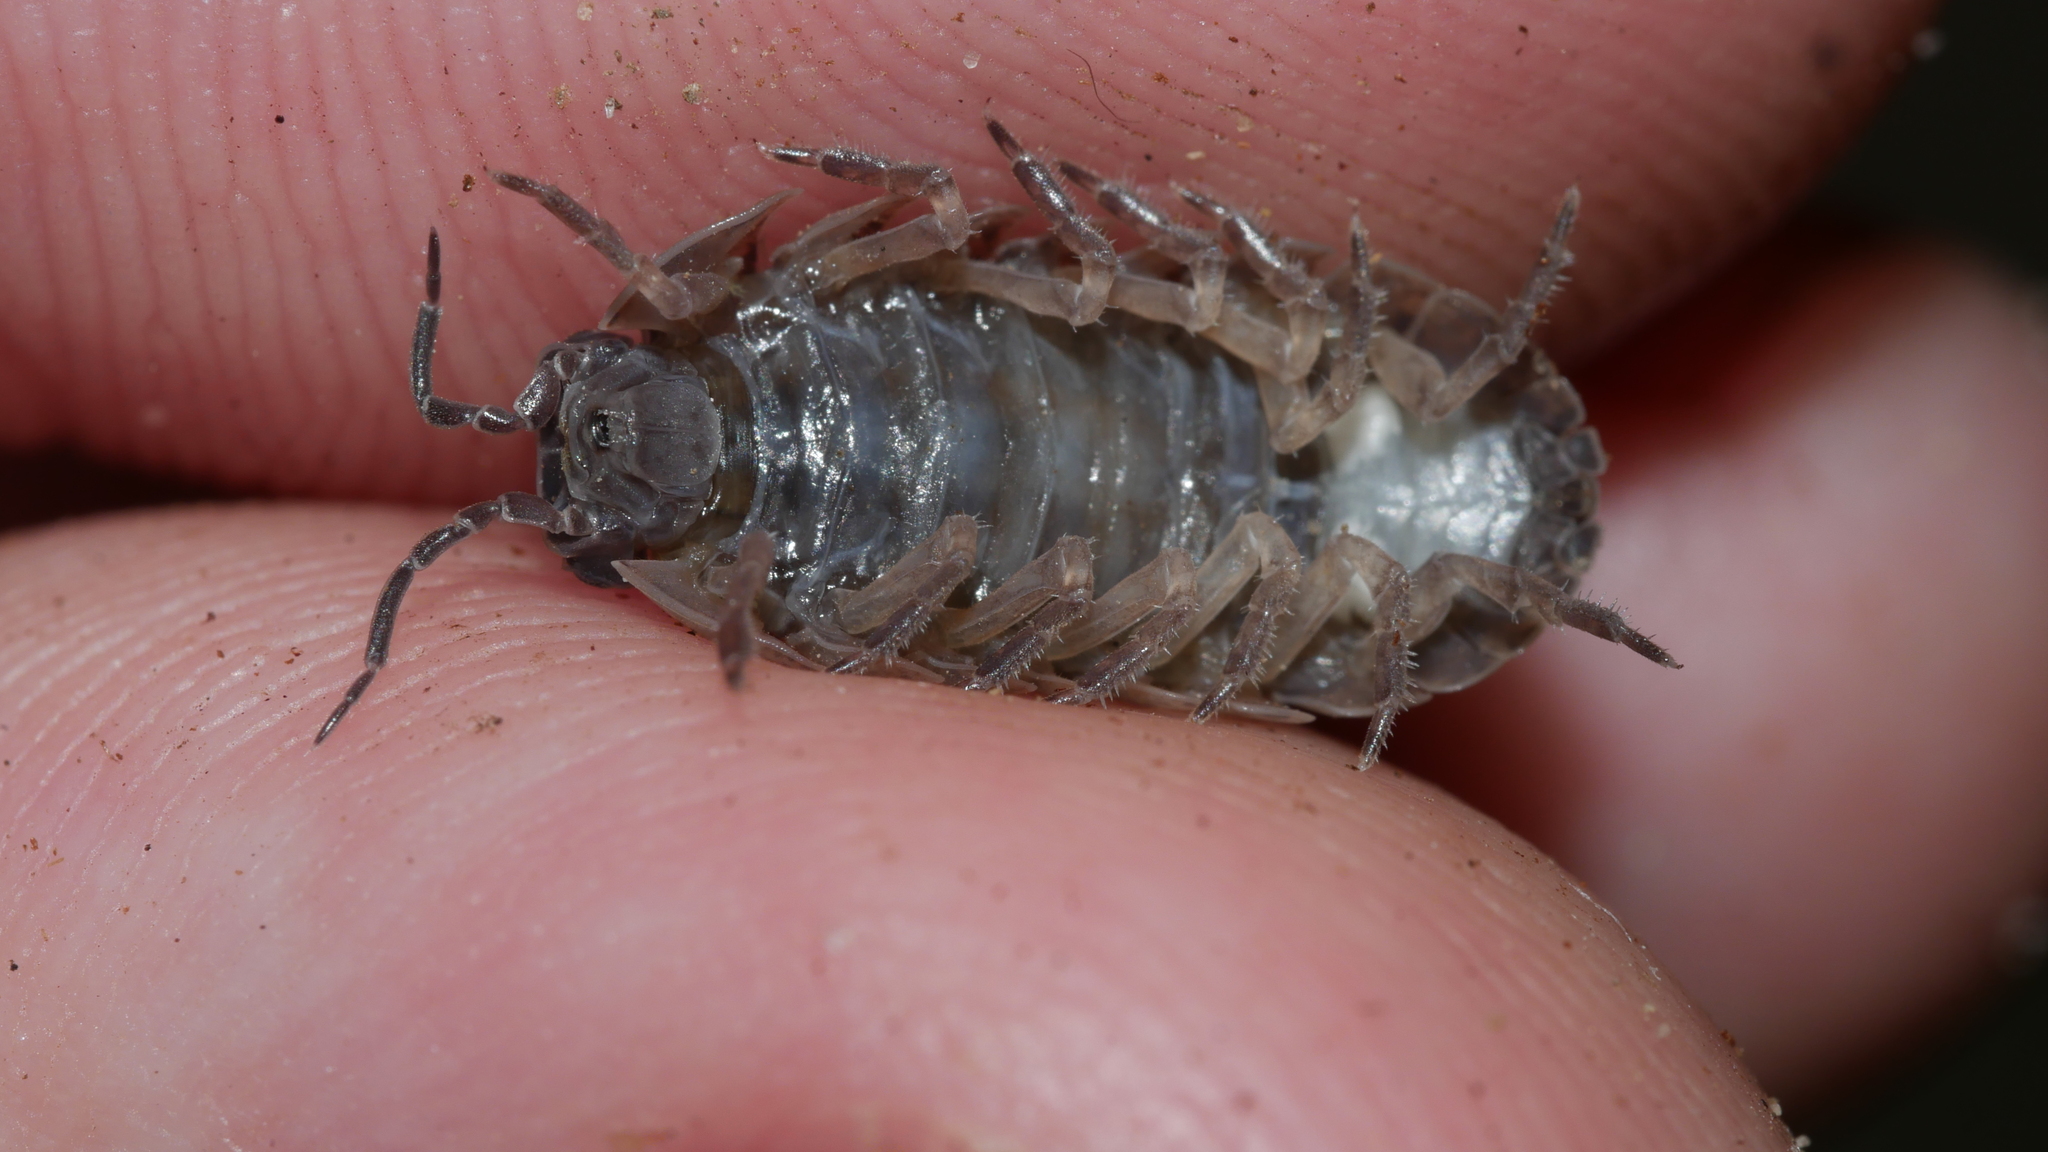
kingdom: Animalia
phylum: Arthropoda
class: Malacostraca
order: Isopoda
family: Armadillidiidae
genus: Armadillidium
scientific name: Armadillidium vulgare
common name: Common pill woodlouse
